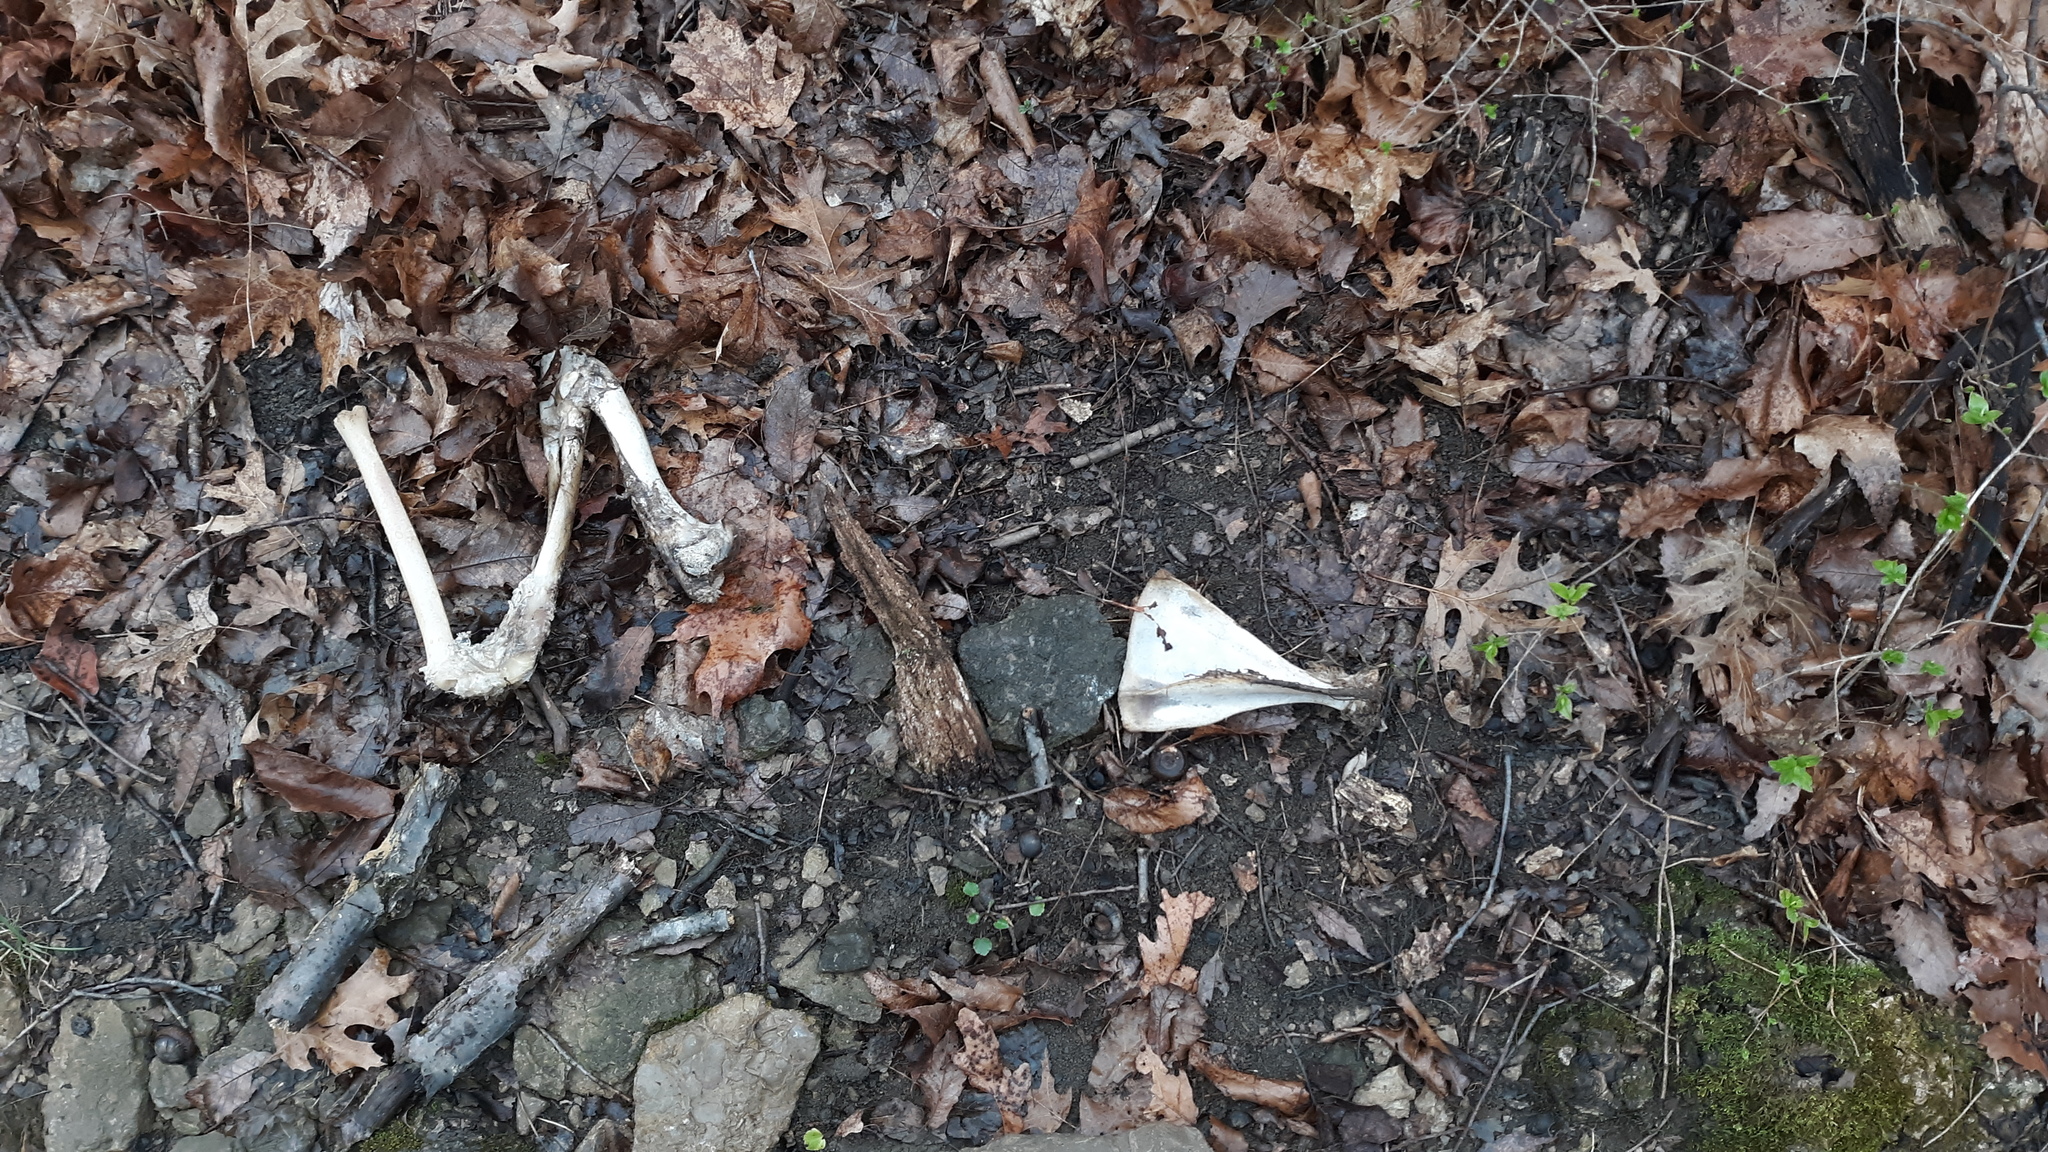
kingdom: Animalia
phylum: Chordata
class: Mammalia
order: Artiodactyla
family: Cervidae
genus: Odocoileus
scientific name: Odocoileus virginianus
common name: White-tailed deer
